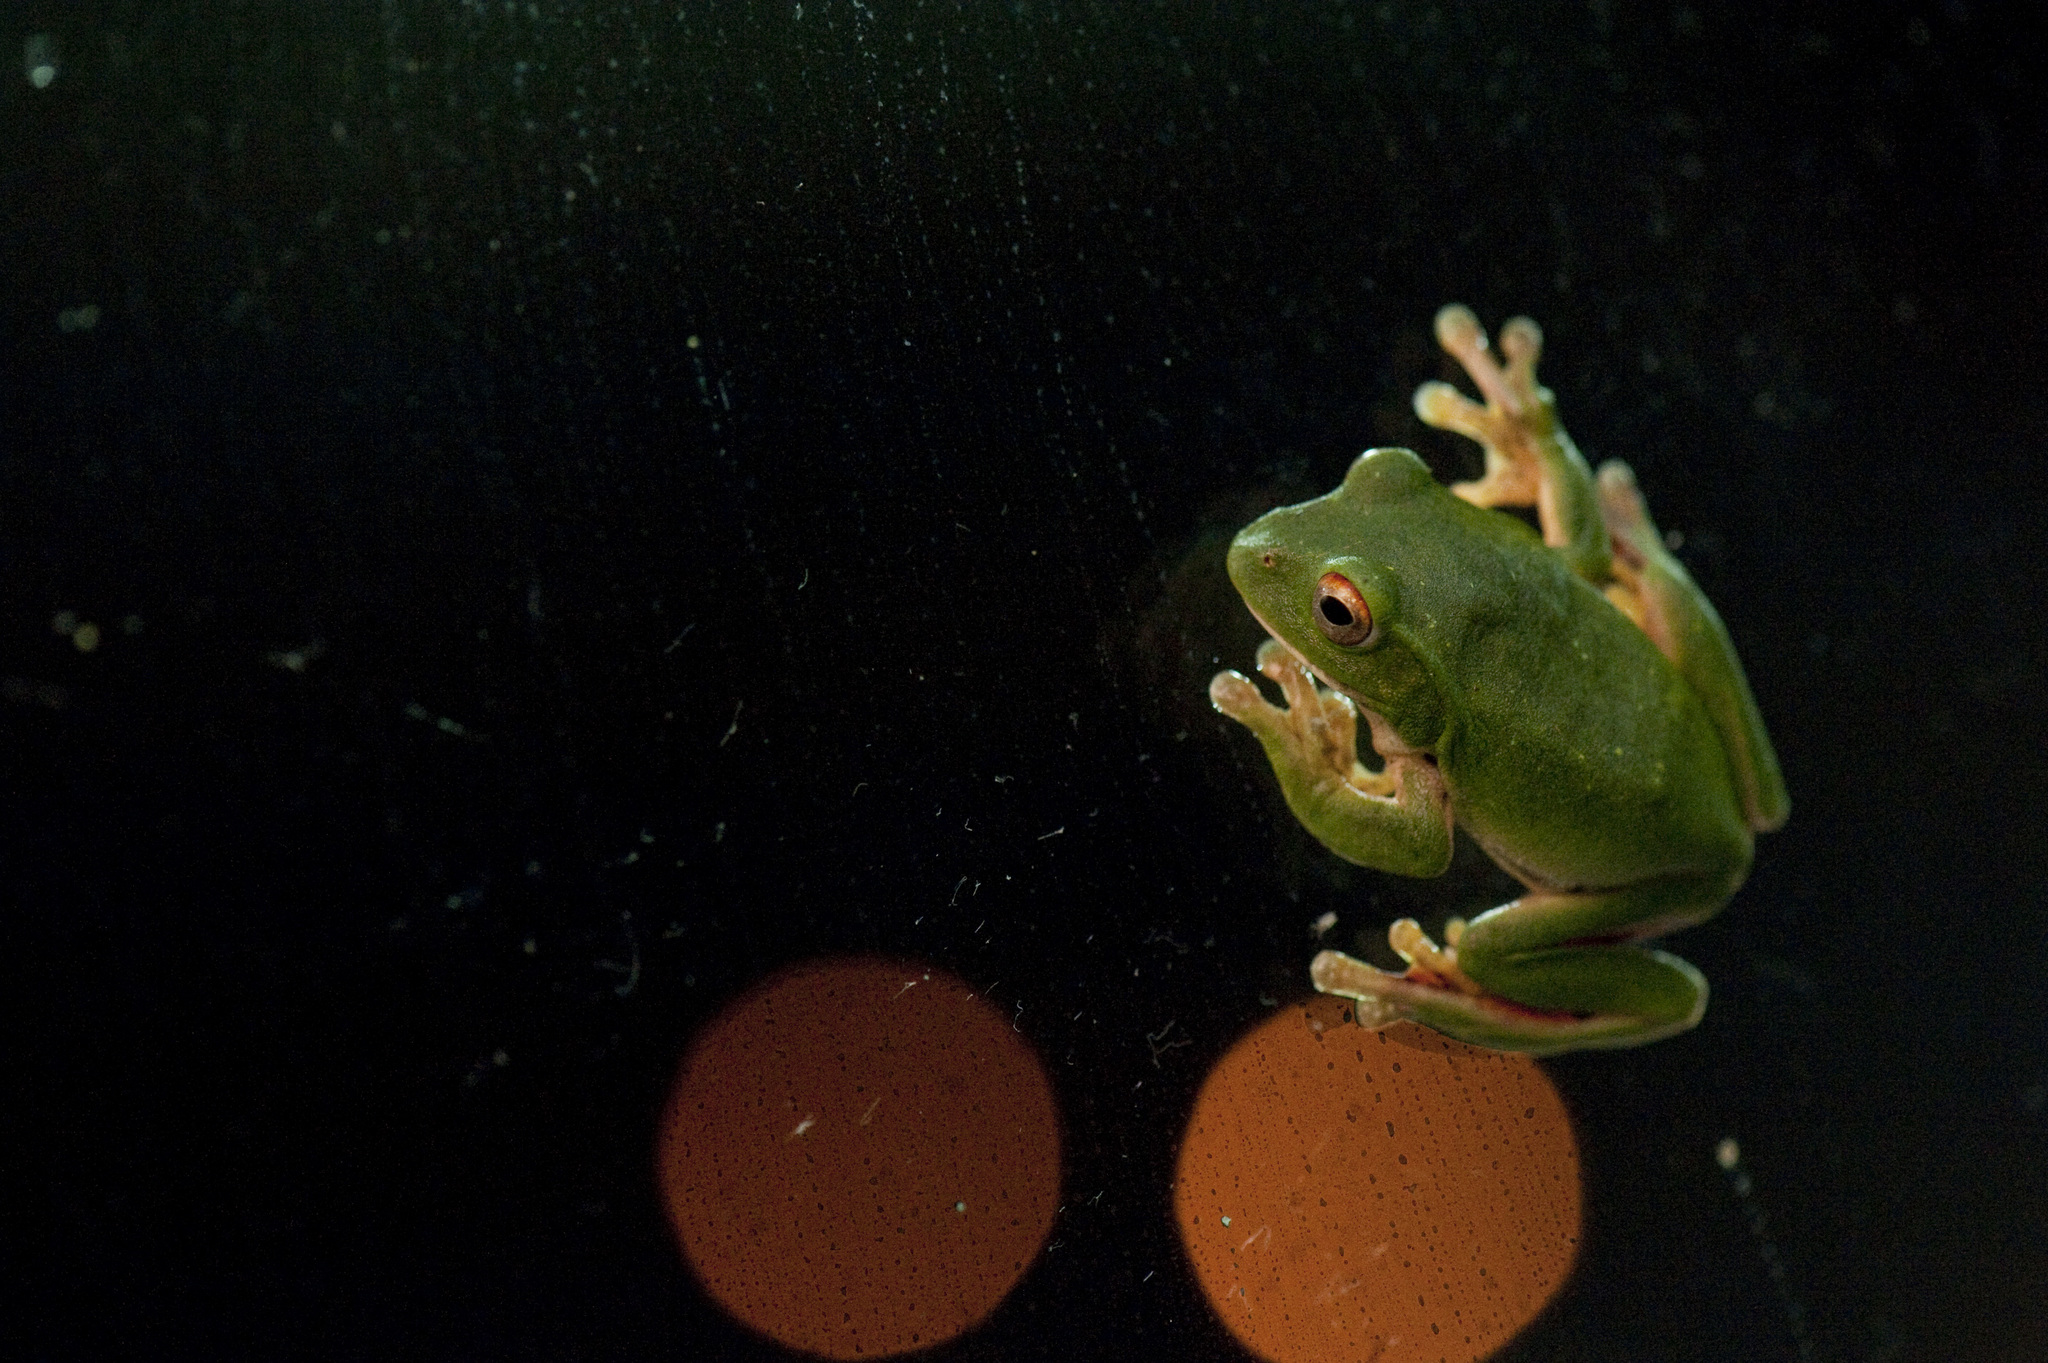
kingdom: Animalia
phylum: Chordata
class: Amphibia
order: Anura
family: Rhacophoridae
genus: Zhangixalus
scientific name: Zhangixalus moltrechti
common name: Moltrecht's treefrog
